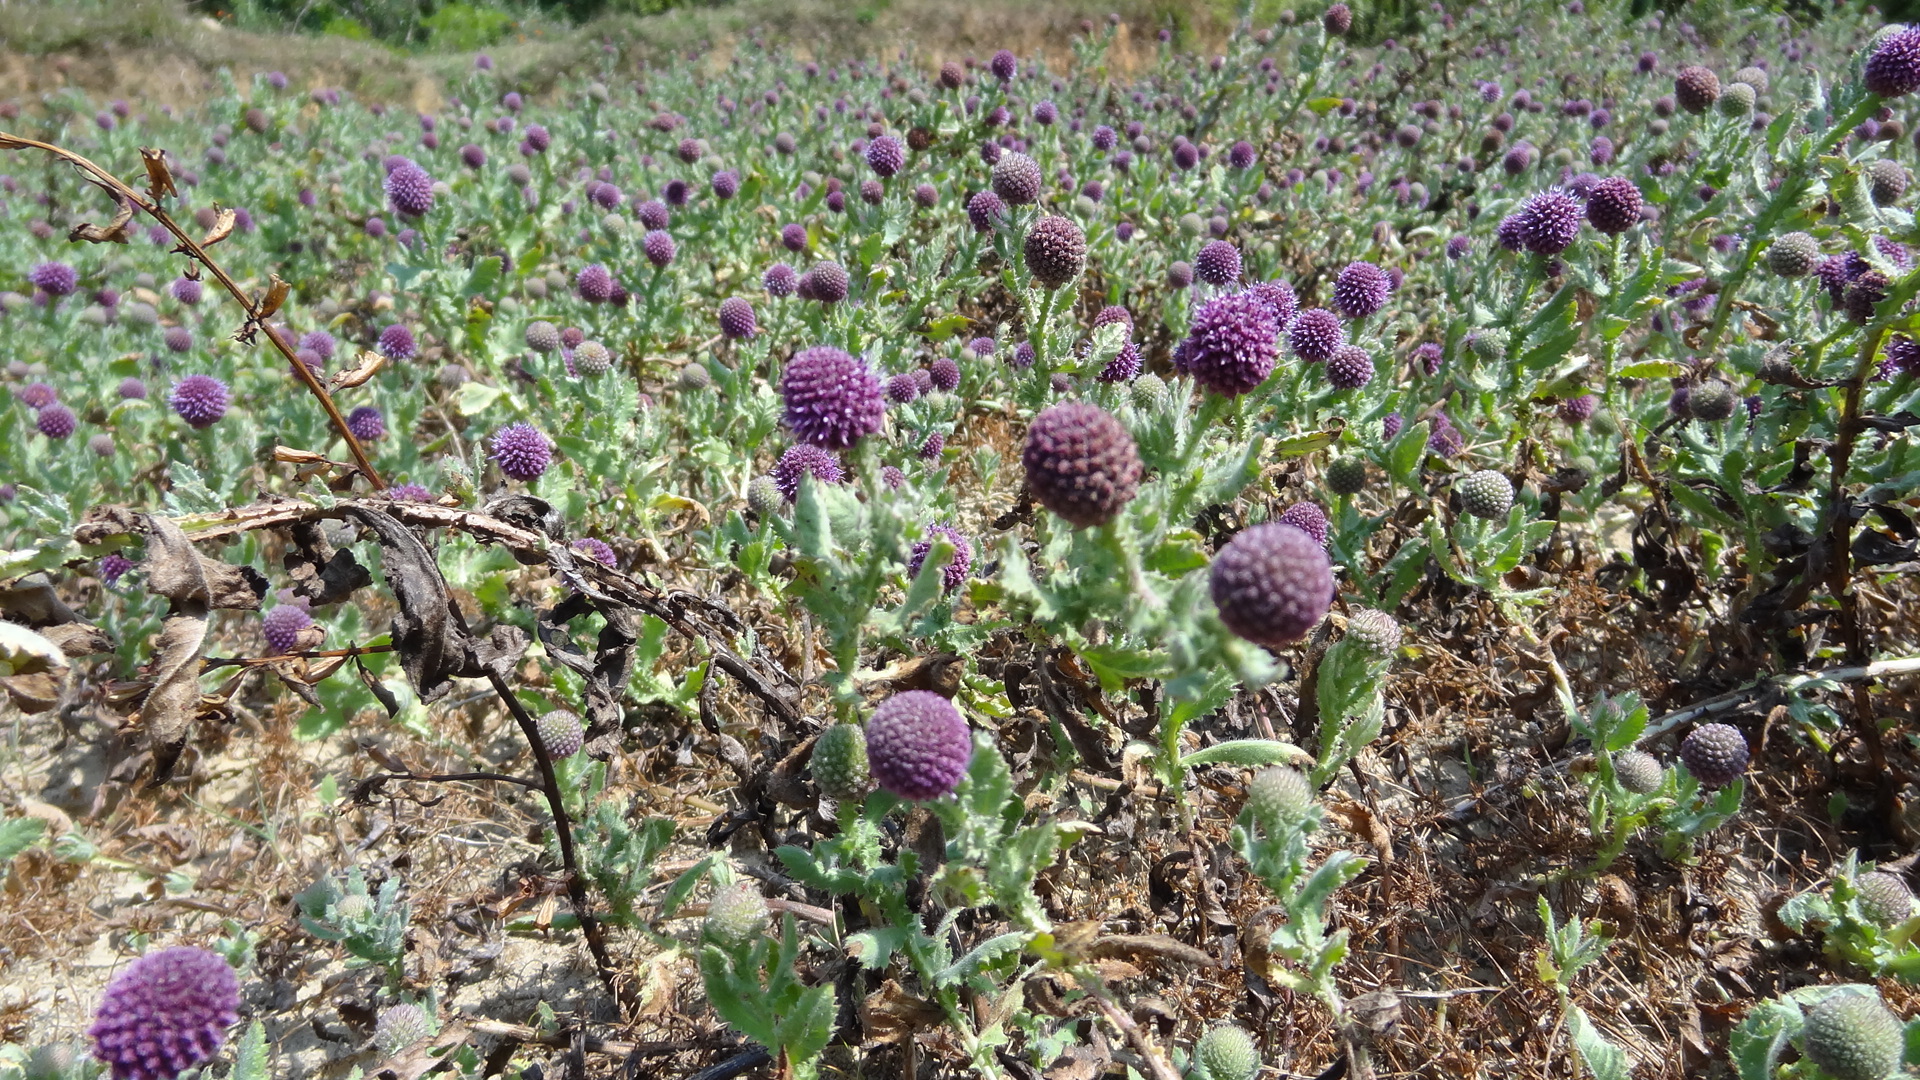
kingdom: Plantae
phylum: Tracheophyta
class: Magnoliopsida
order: Asterales
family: Asteraceae
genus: Sphaeranthus
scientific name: Sphaeranthus indicus
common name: East indian globe thistle
